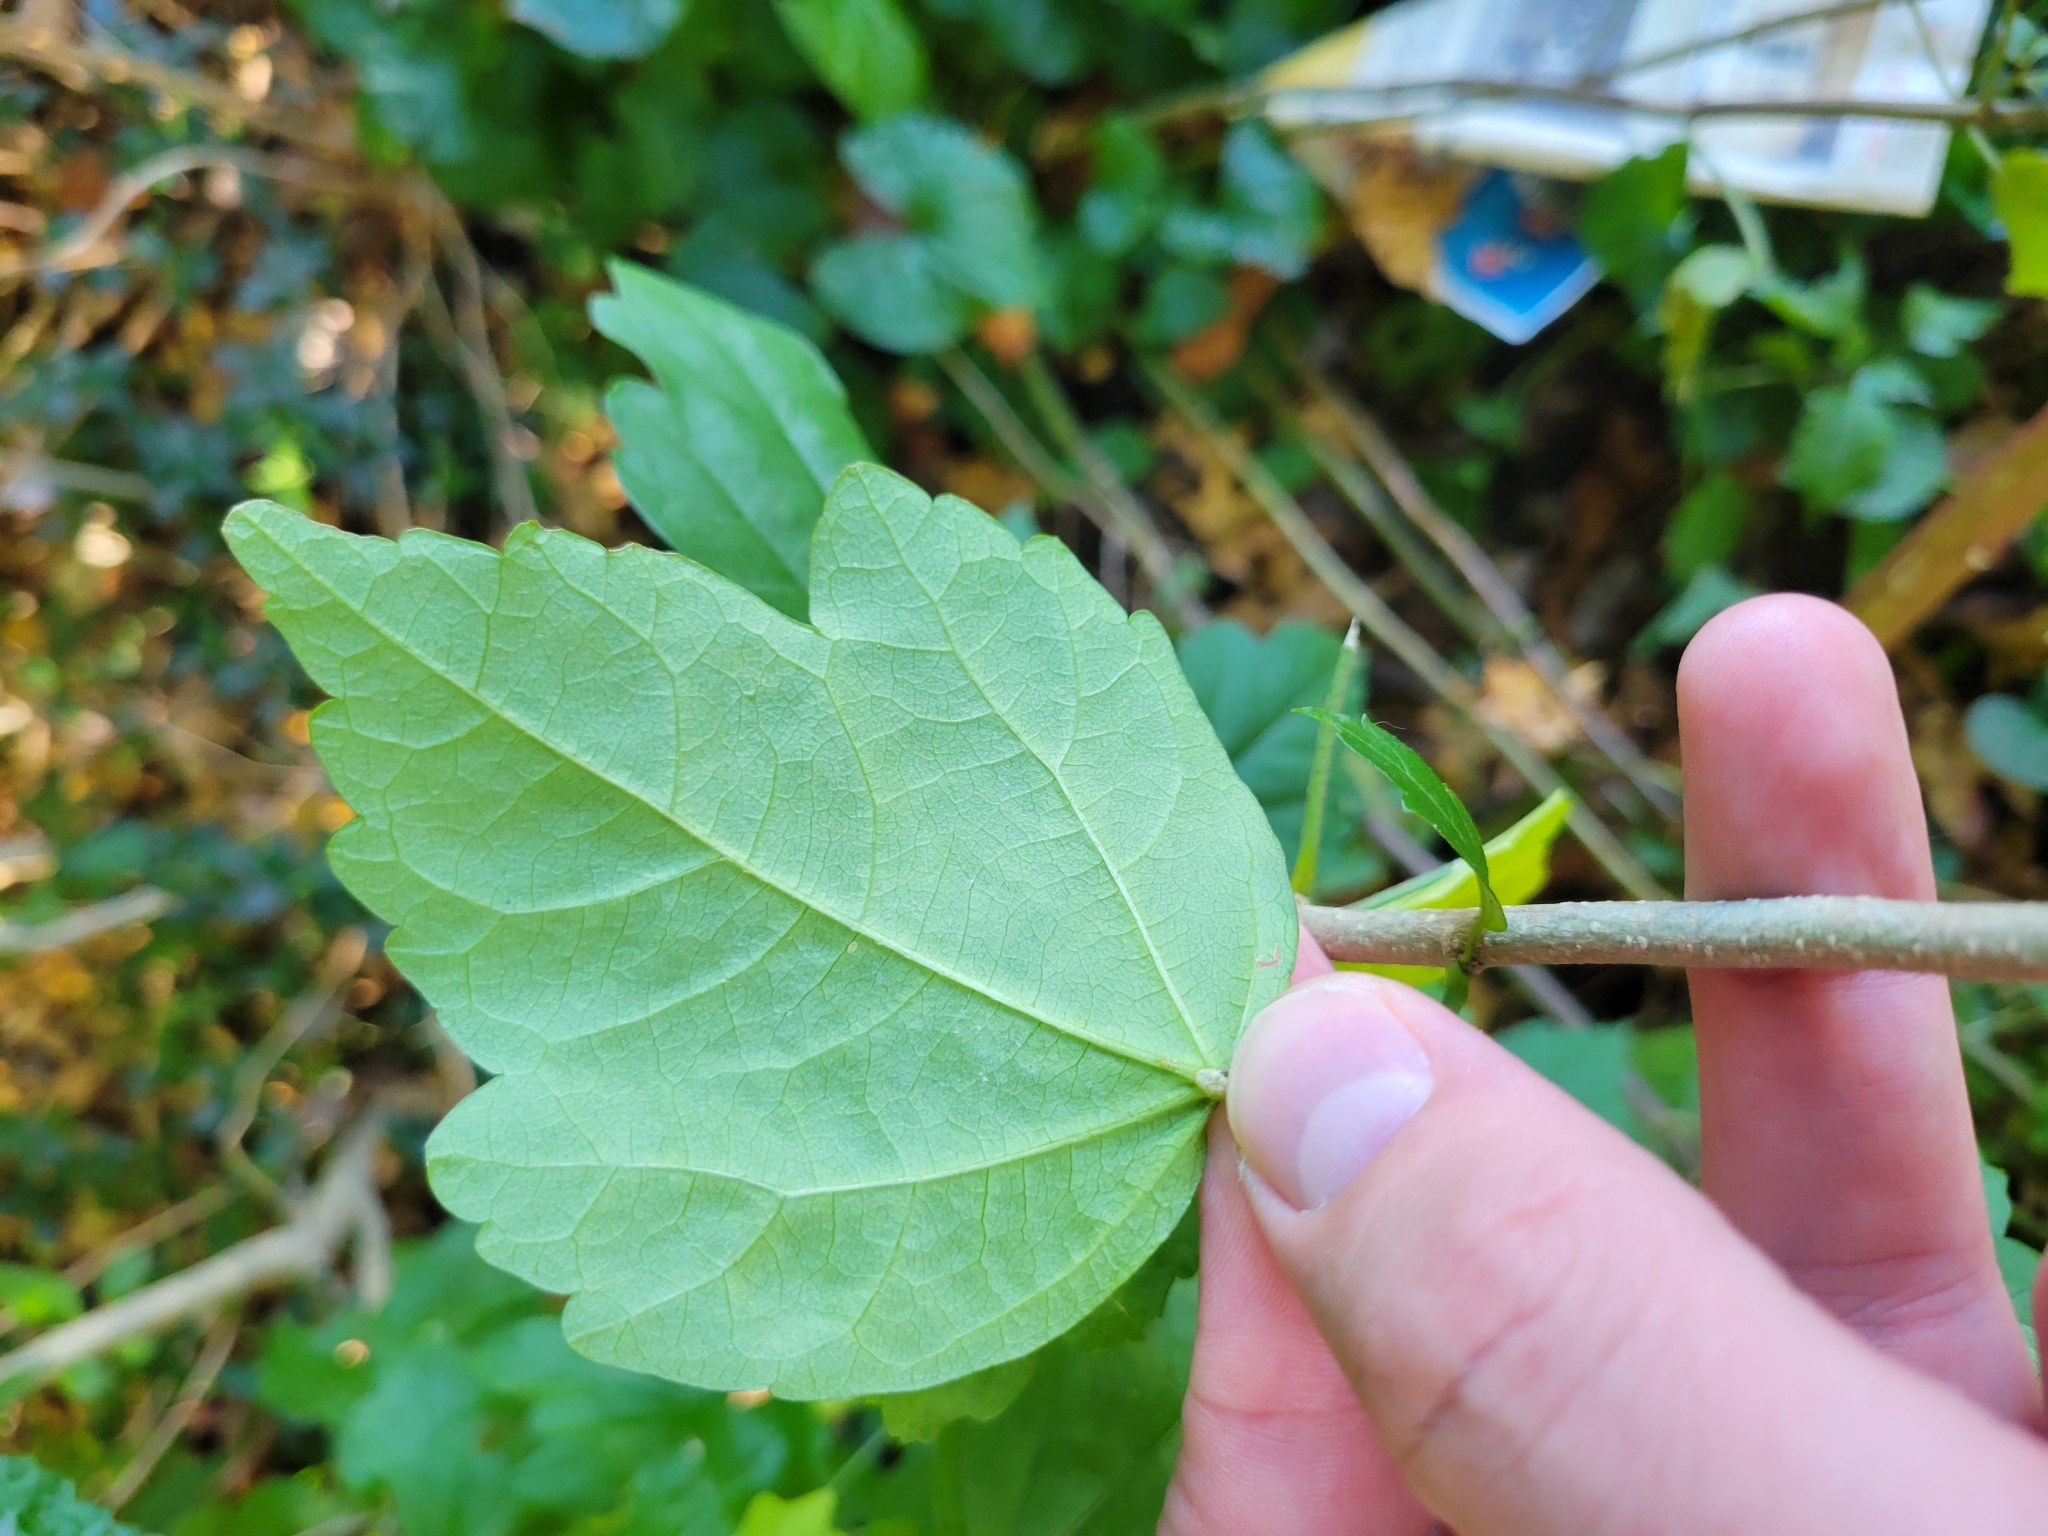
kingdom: Plantae
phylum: Tracheophyta
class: Magnoliopsida
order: Malvales
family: Malvaceae
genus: Hibiscus
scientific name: Hibiscus syriacus
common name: Syrian ketmia
